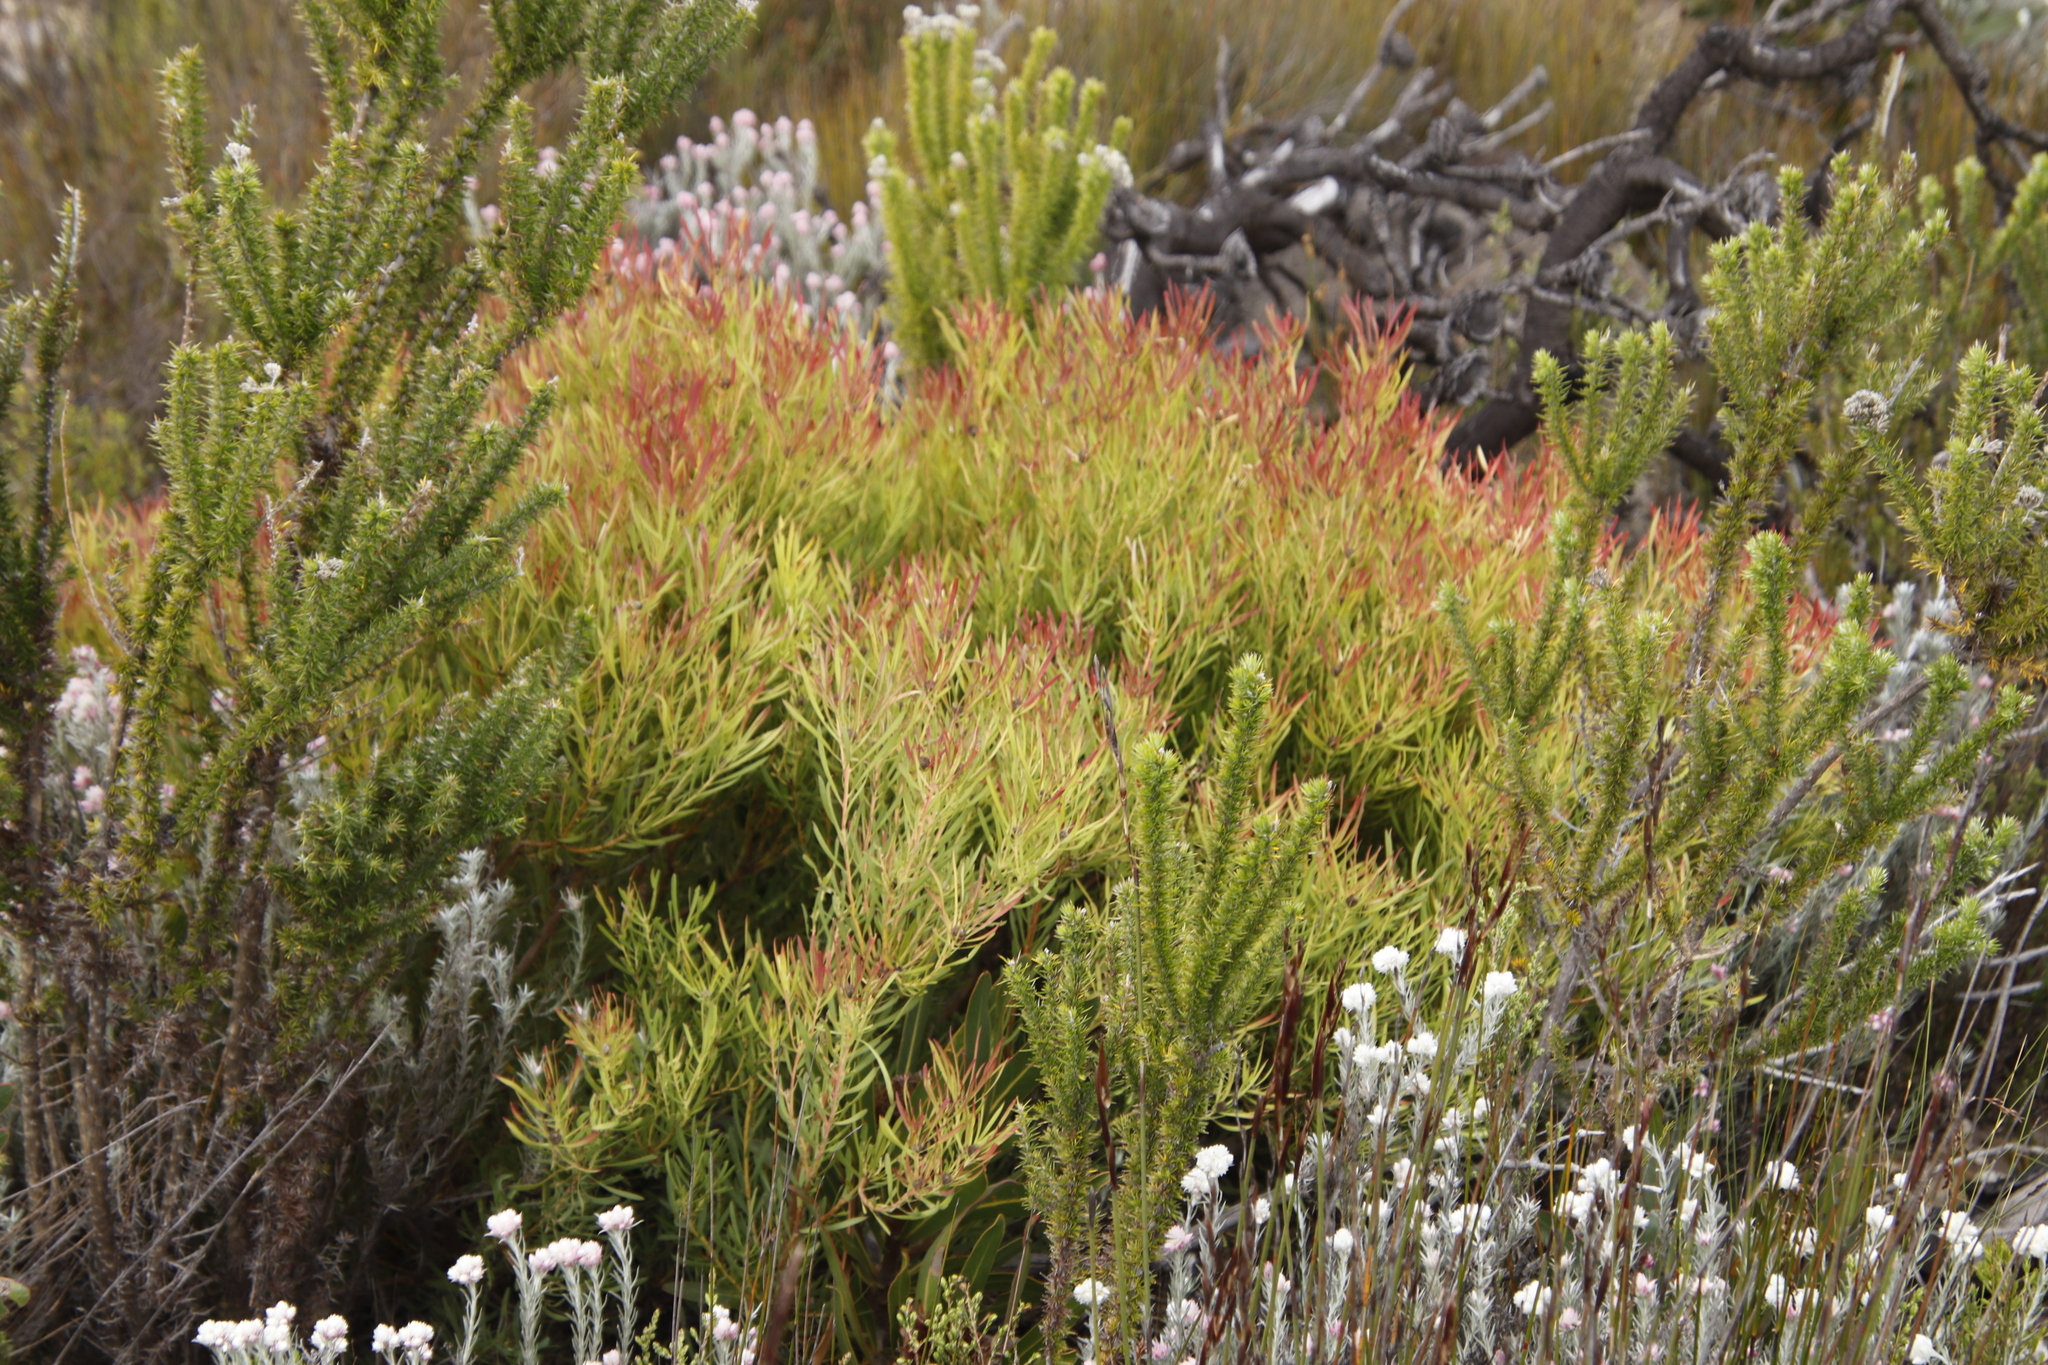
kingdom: Plantae
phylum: Tracheophyta
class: Magnoliopsida
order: Proteales
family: Proteaceae
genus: Leucadendron
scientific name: Leucadendron salignum
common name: Common sunshine conebush
